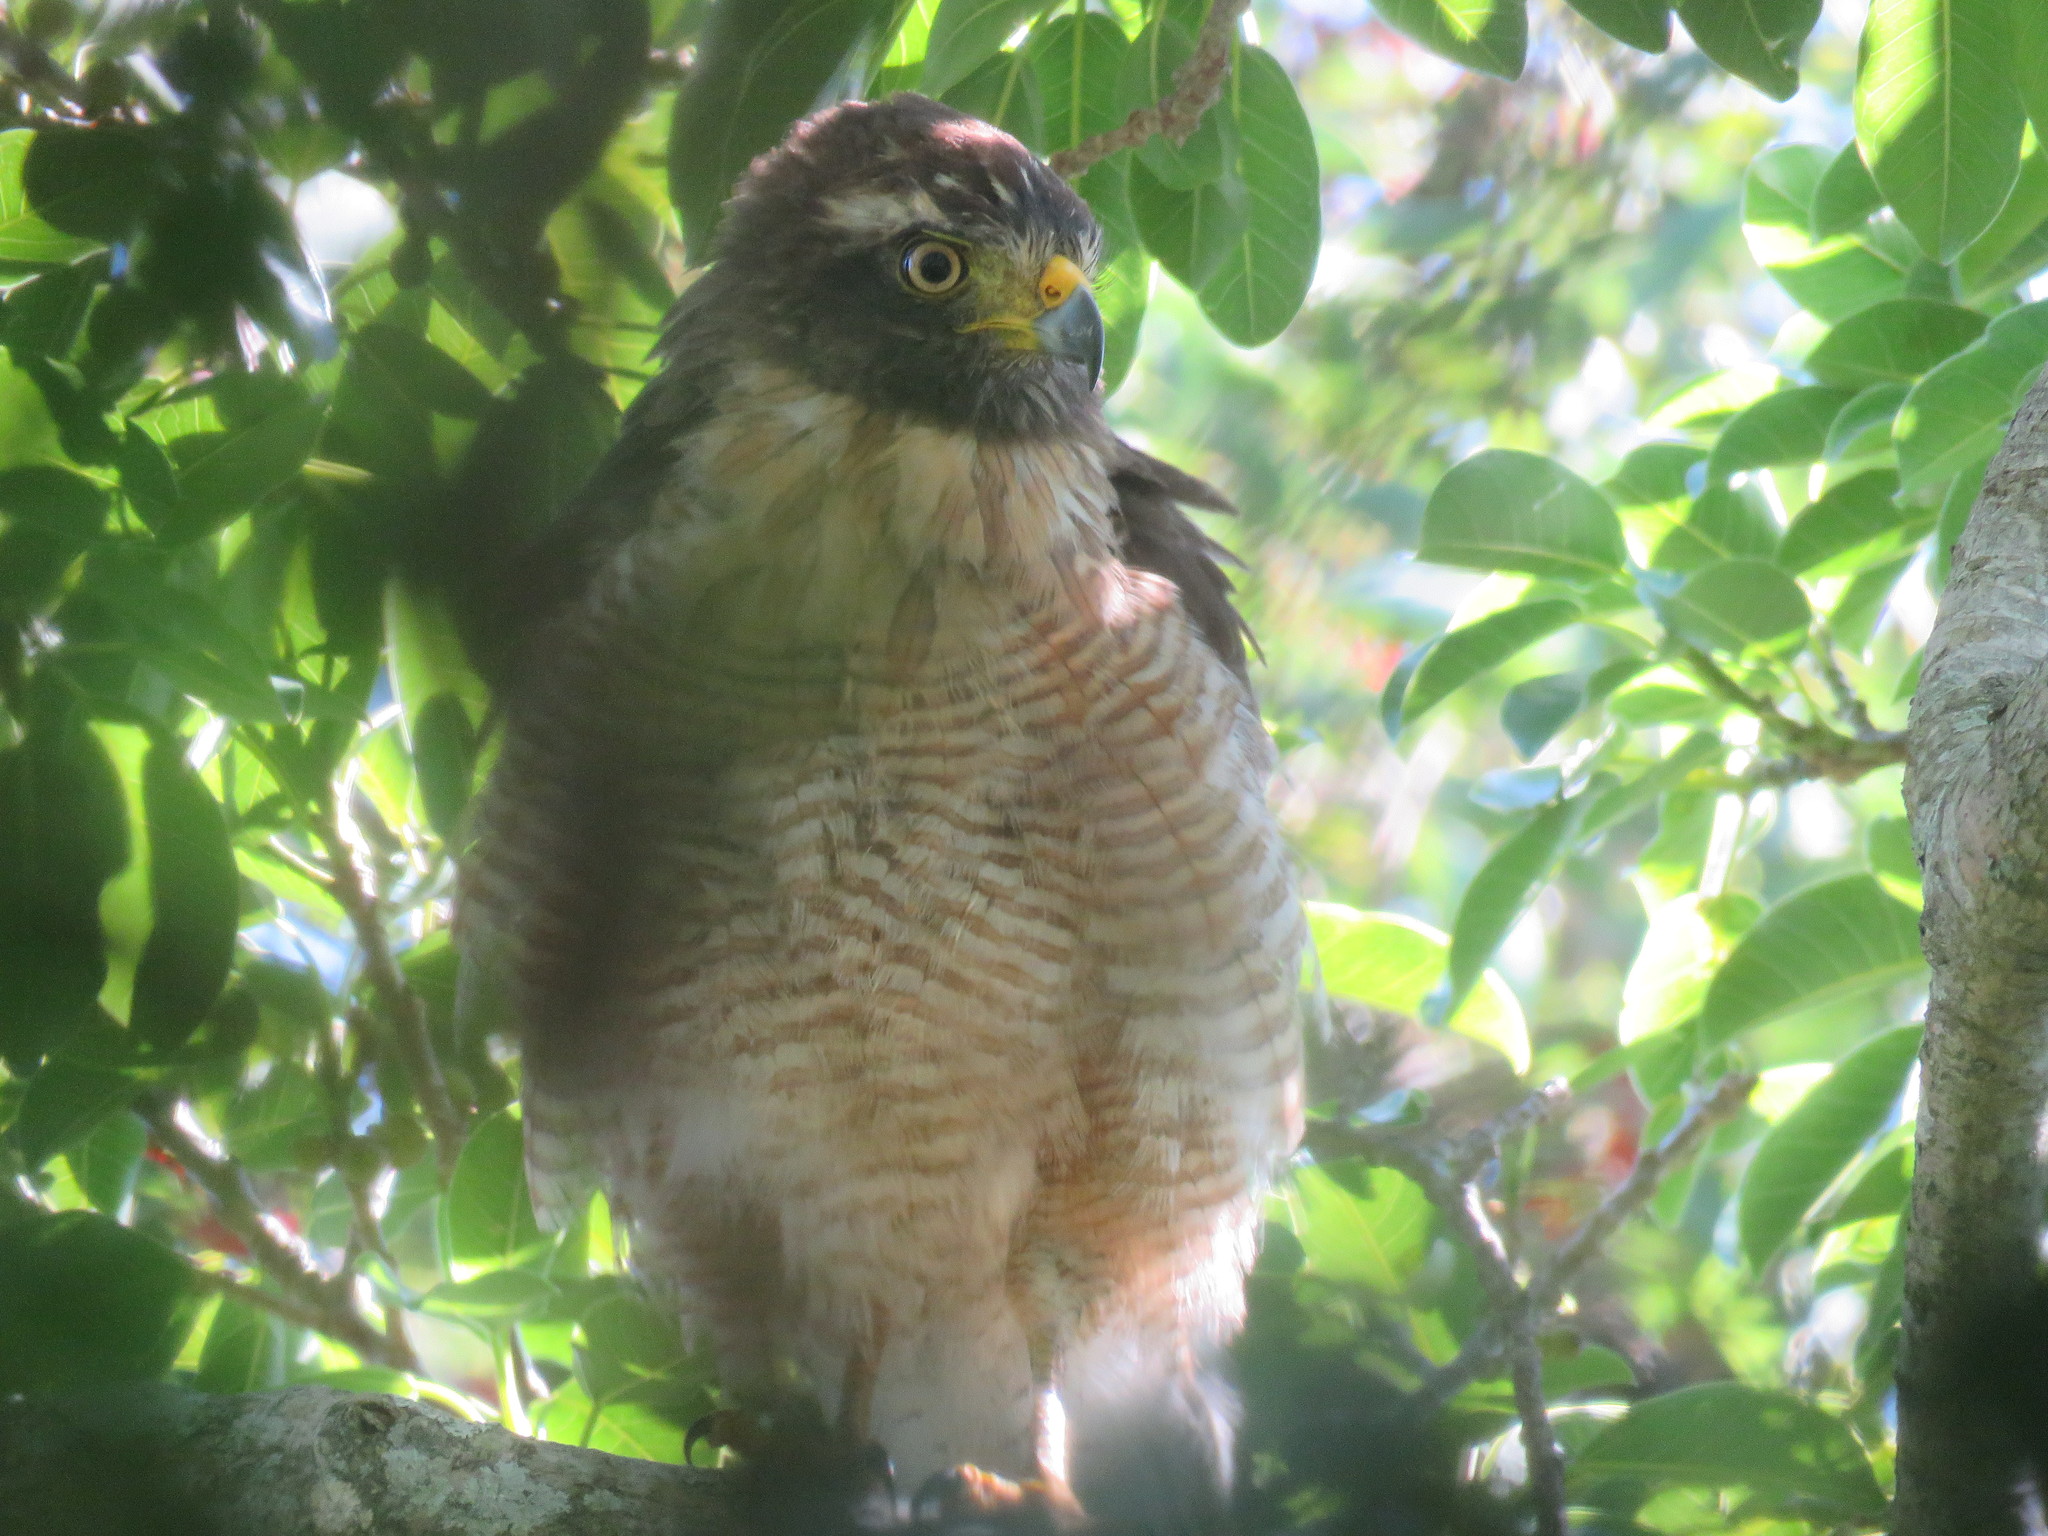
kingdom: Animalia
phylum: Chordata
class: Aves
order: Accipitriformes
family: Accipitridae
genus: Rupornis
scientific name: Rupornis magnirostris
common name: Roadside hawk
